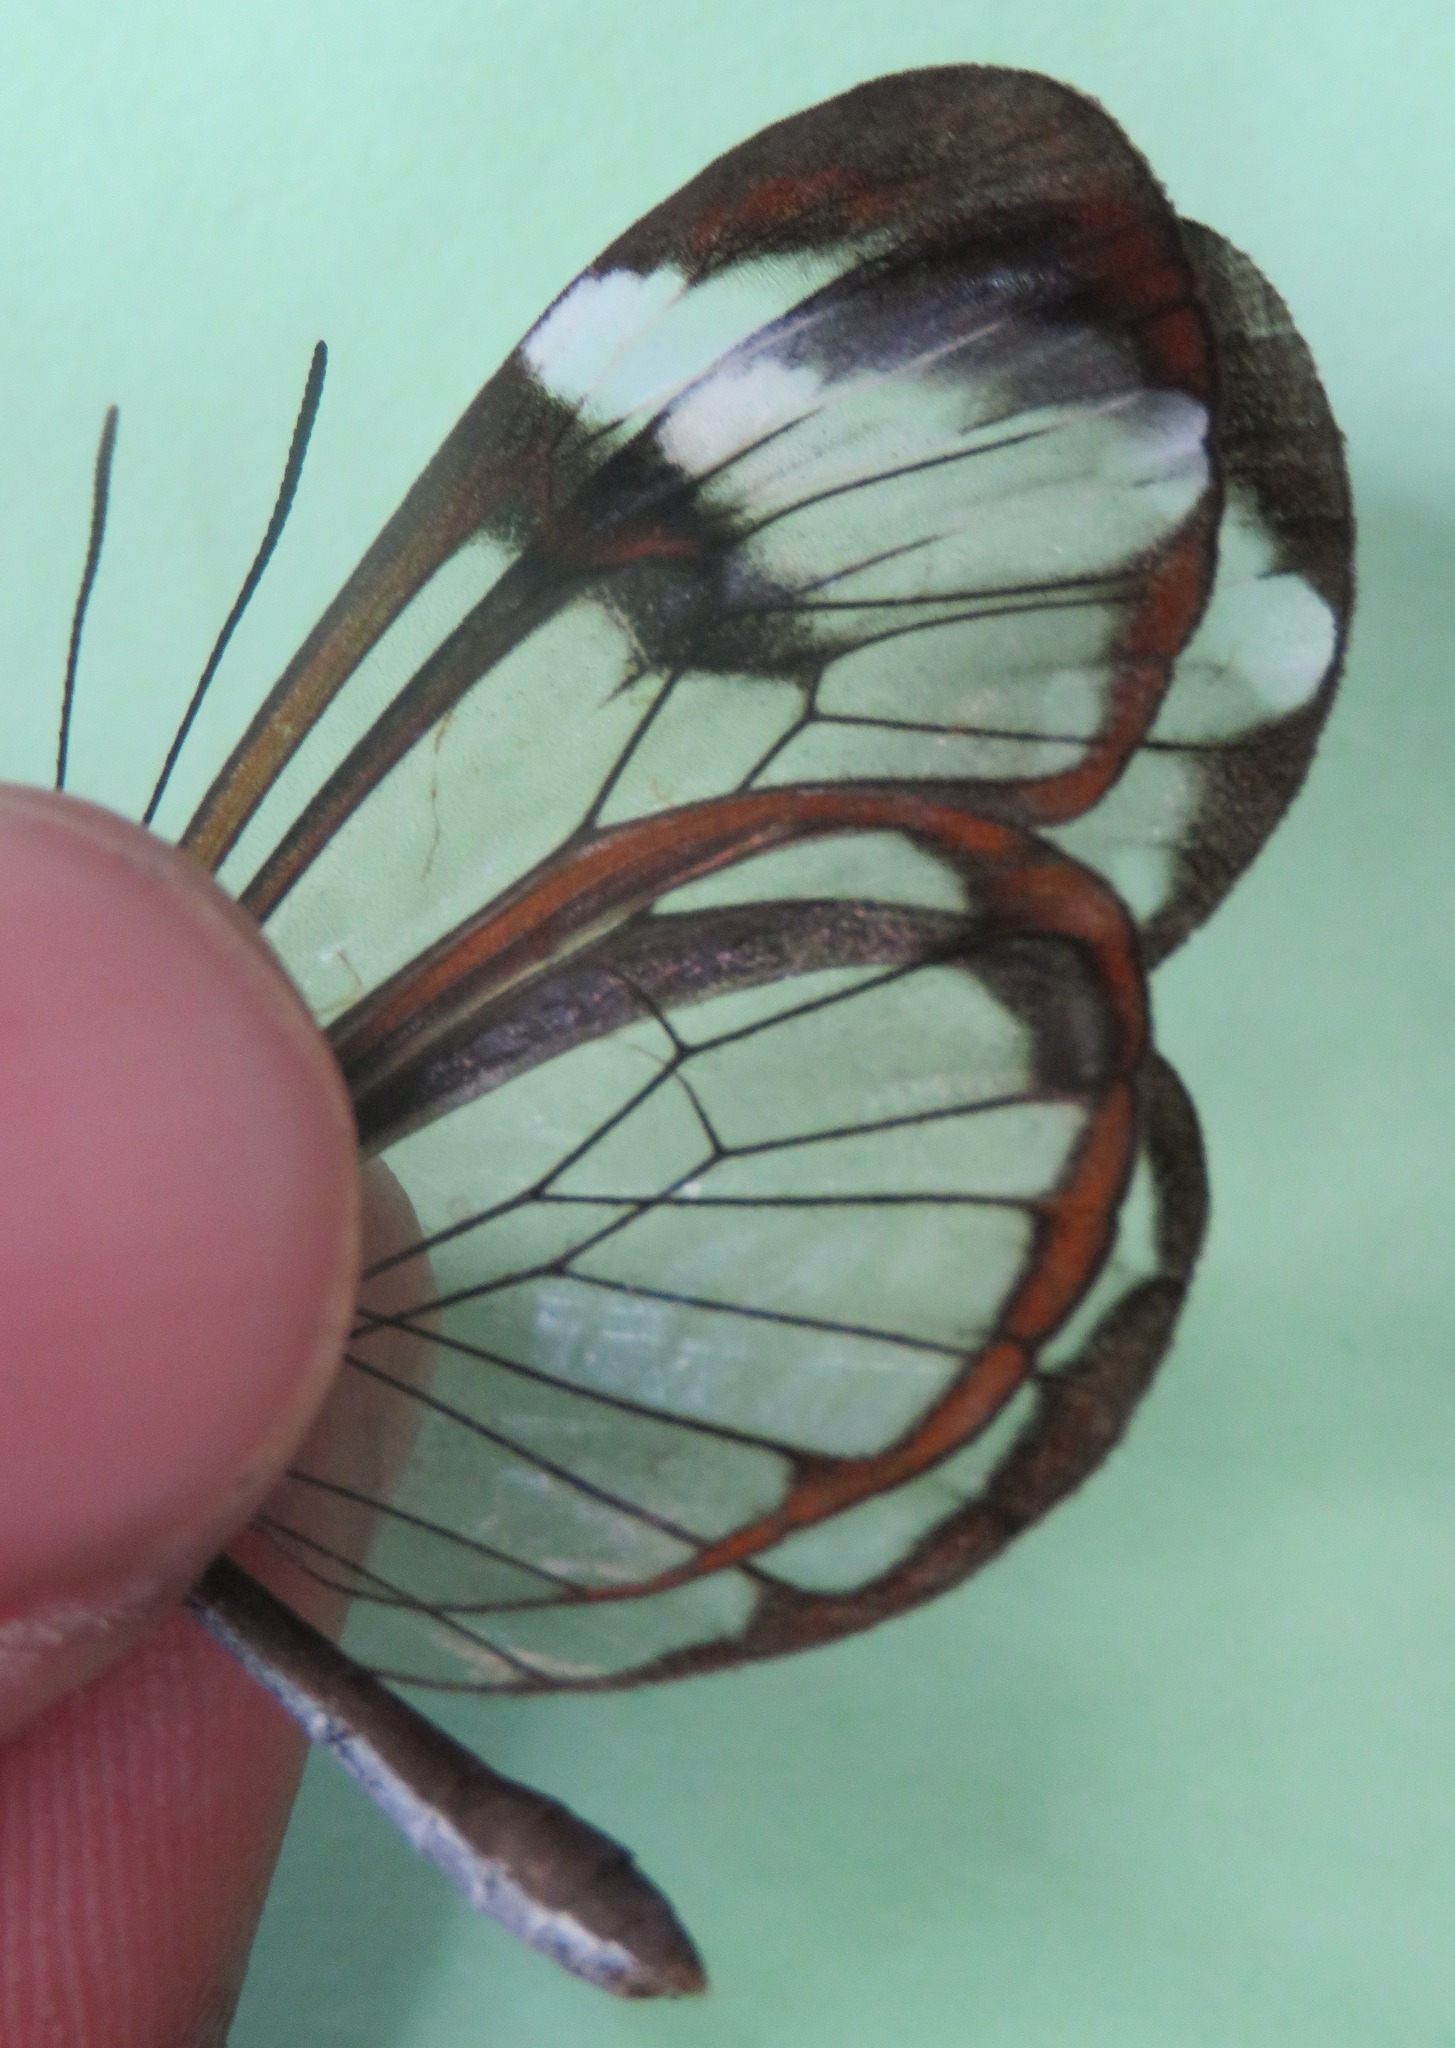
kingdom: Animalia
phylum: Arthropoda
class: Insecta
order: Lepidoptera
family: Nymphalidae
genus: Greta
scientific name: Greta morgane
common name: Thick-tipped greta
